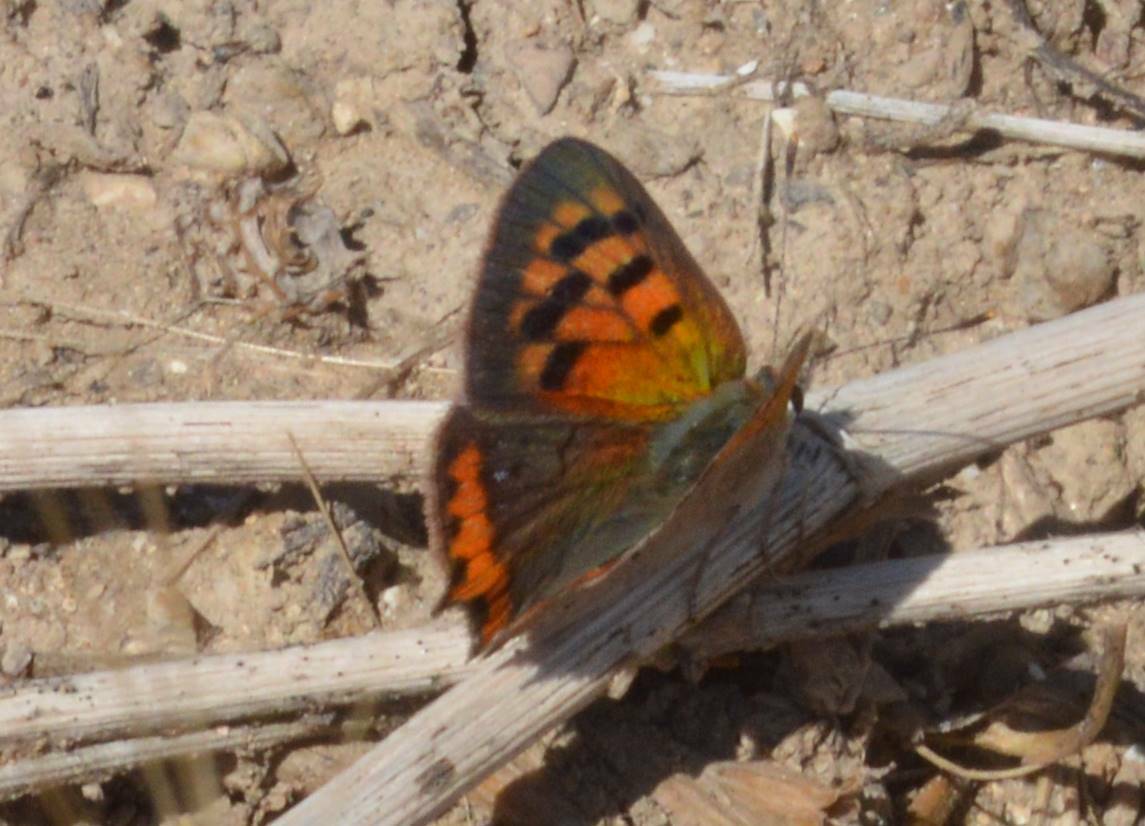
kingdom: Animalia
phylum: Arthropoda
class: Insecta
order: Lepidoptera
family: Lycaenidae
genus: Lycaena
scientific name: Lycaena phlaeas
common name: Small copper
